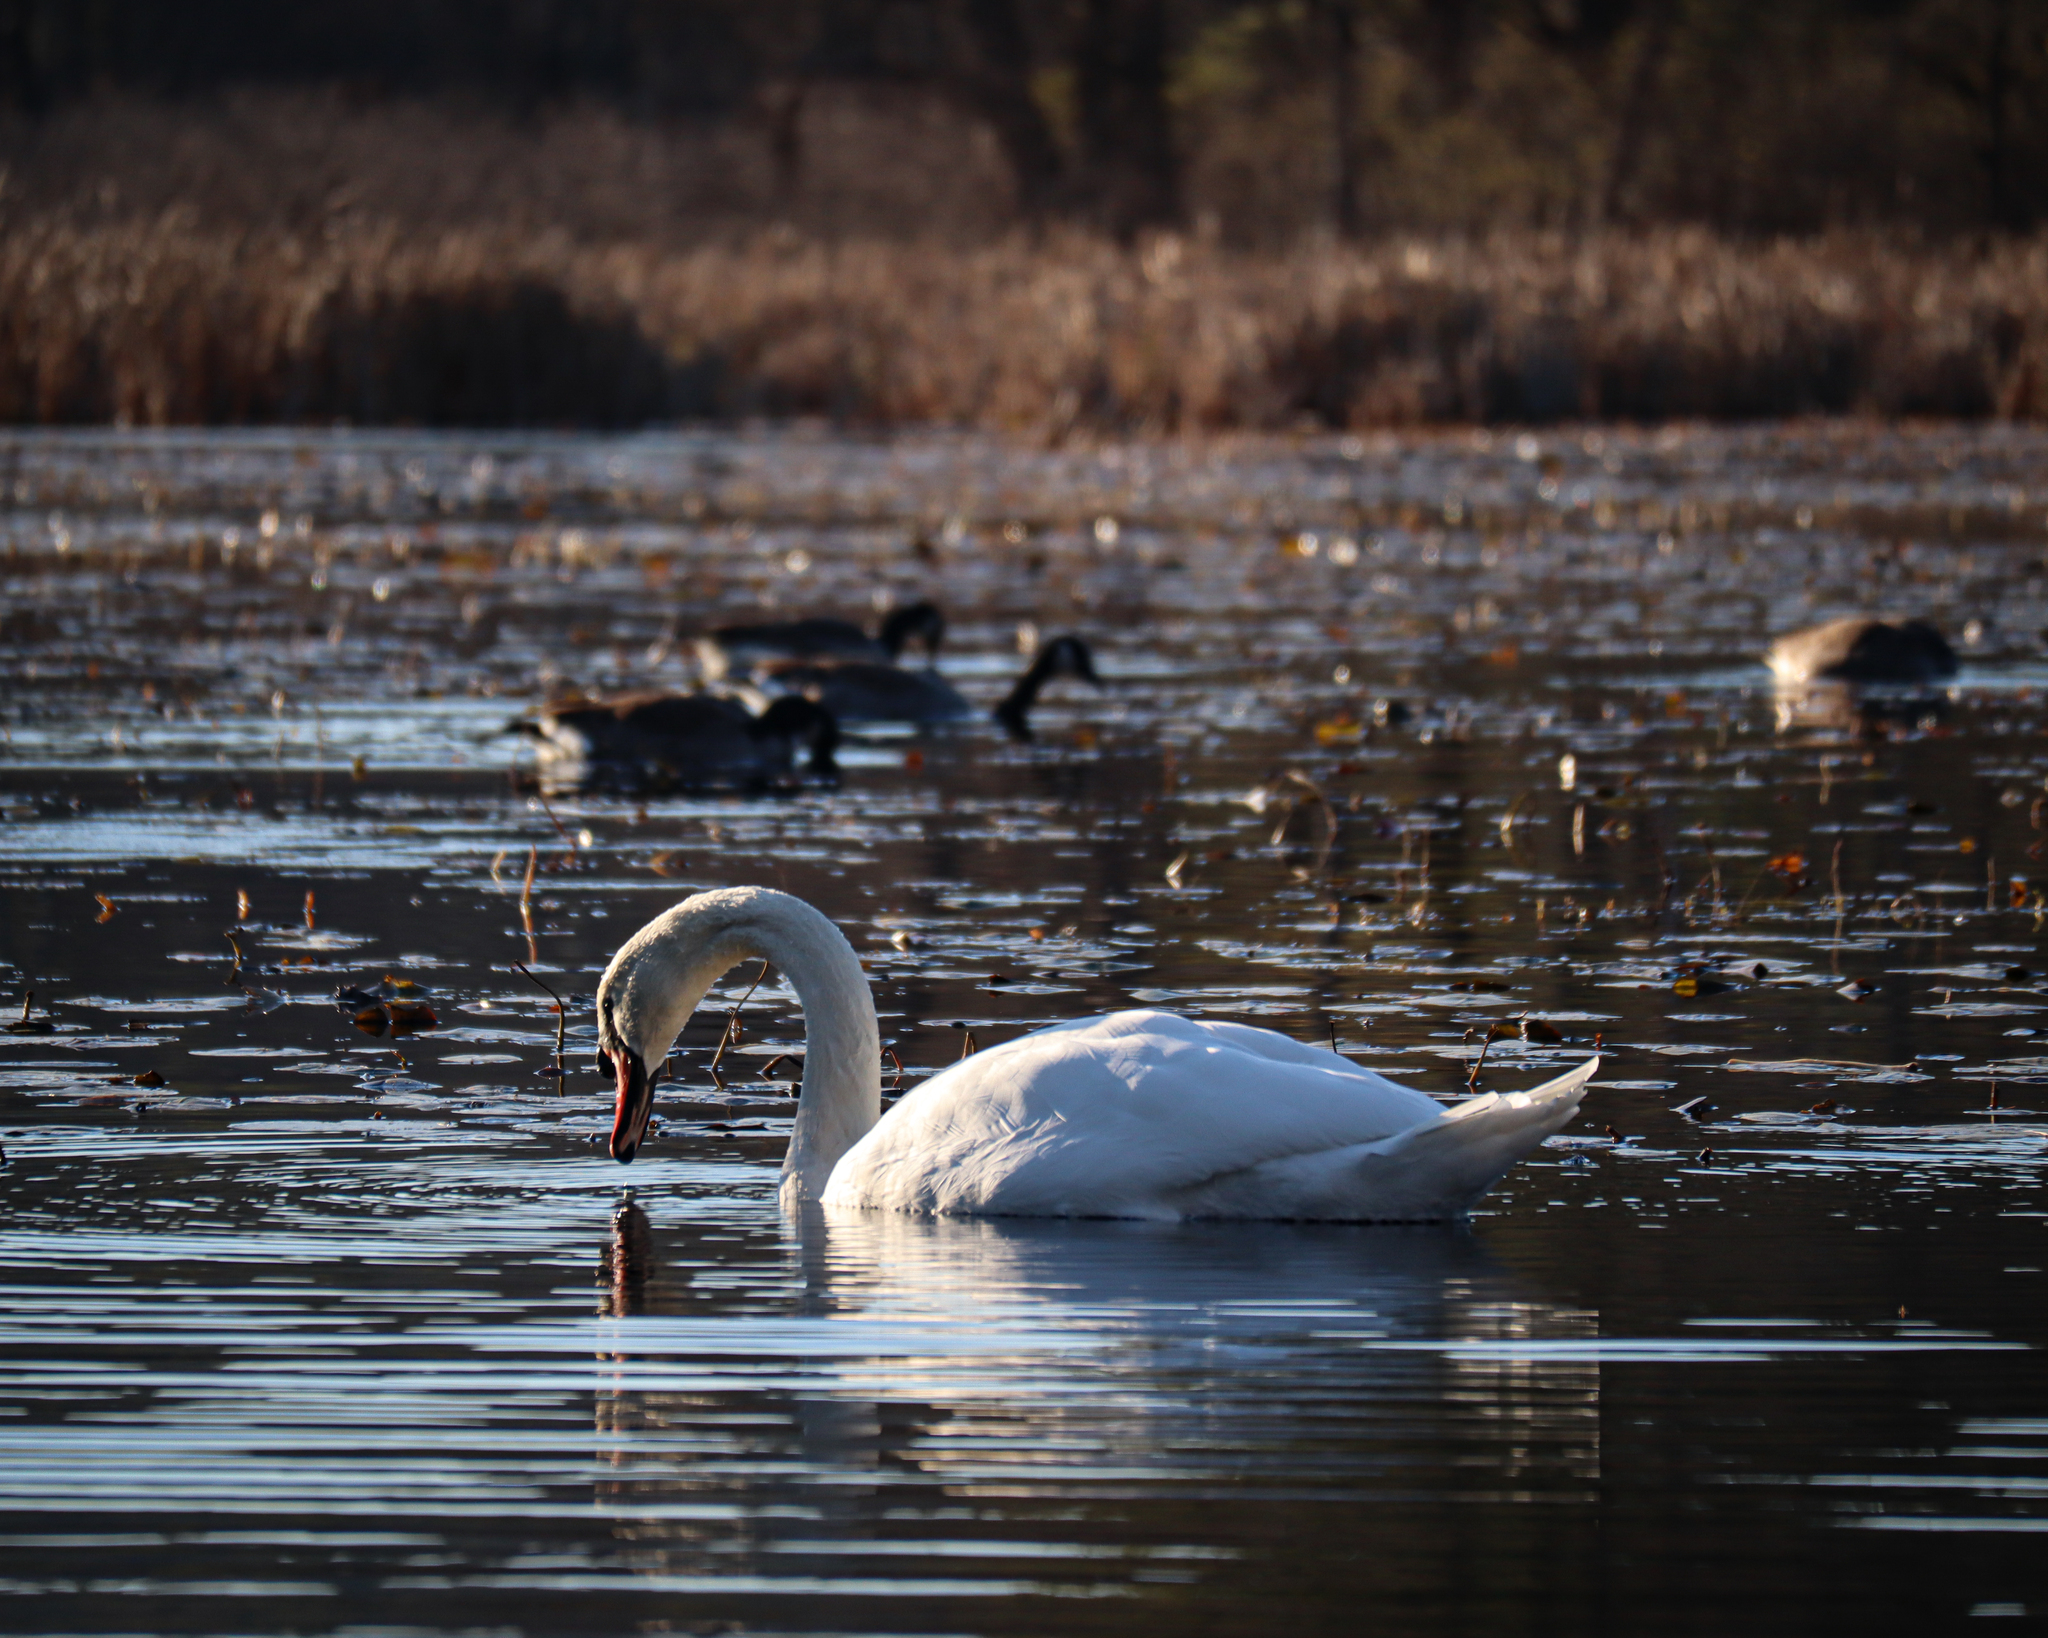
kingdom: Animalia
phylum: Chordata
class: Aves
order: Anseriformes
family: Anatidae
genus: Cygnus
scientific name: Cygnus olor
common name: Mute swan
